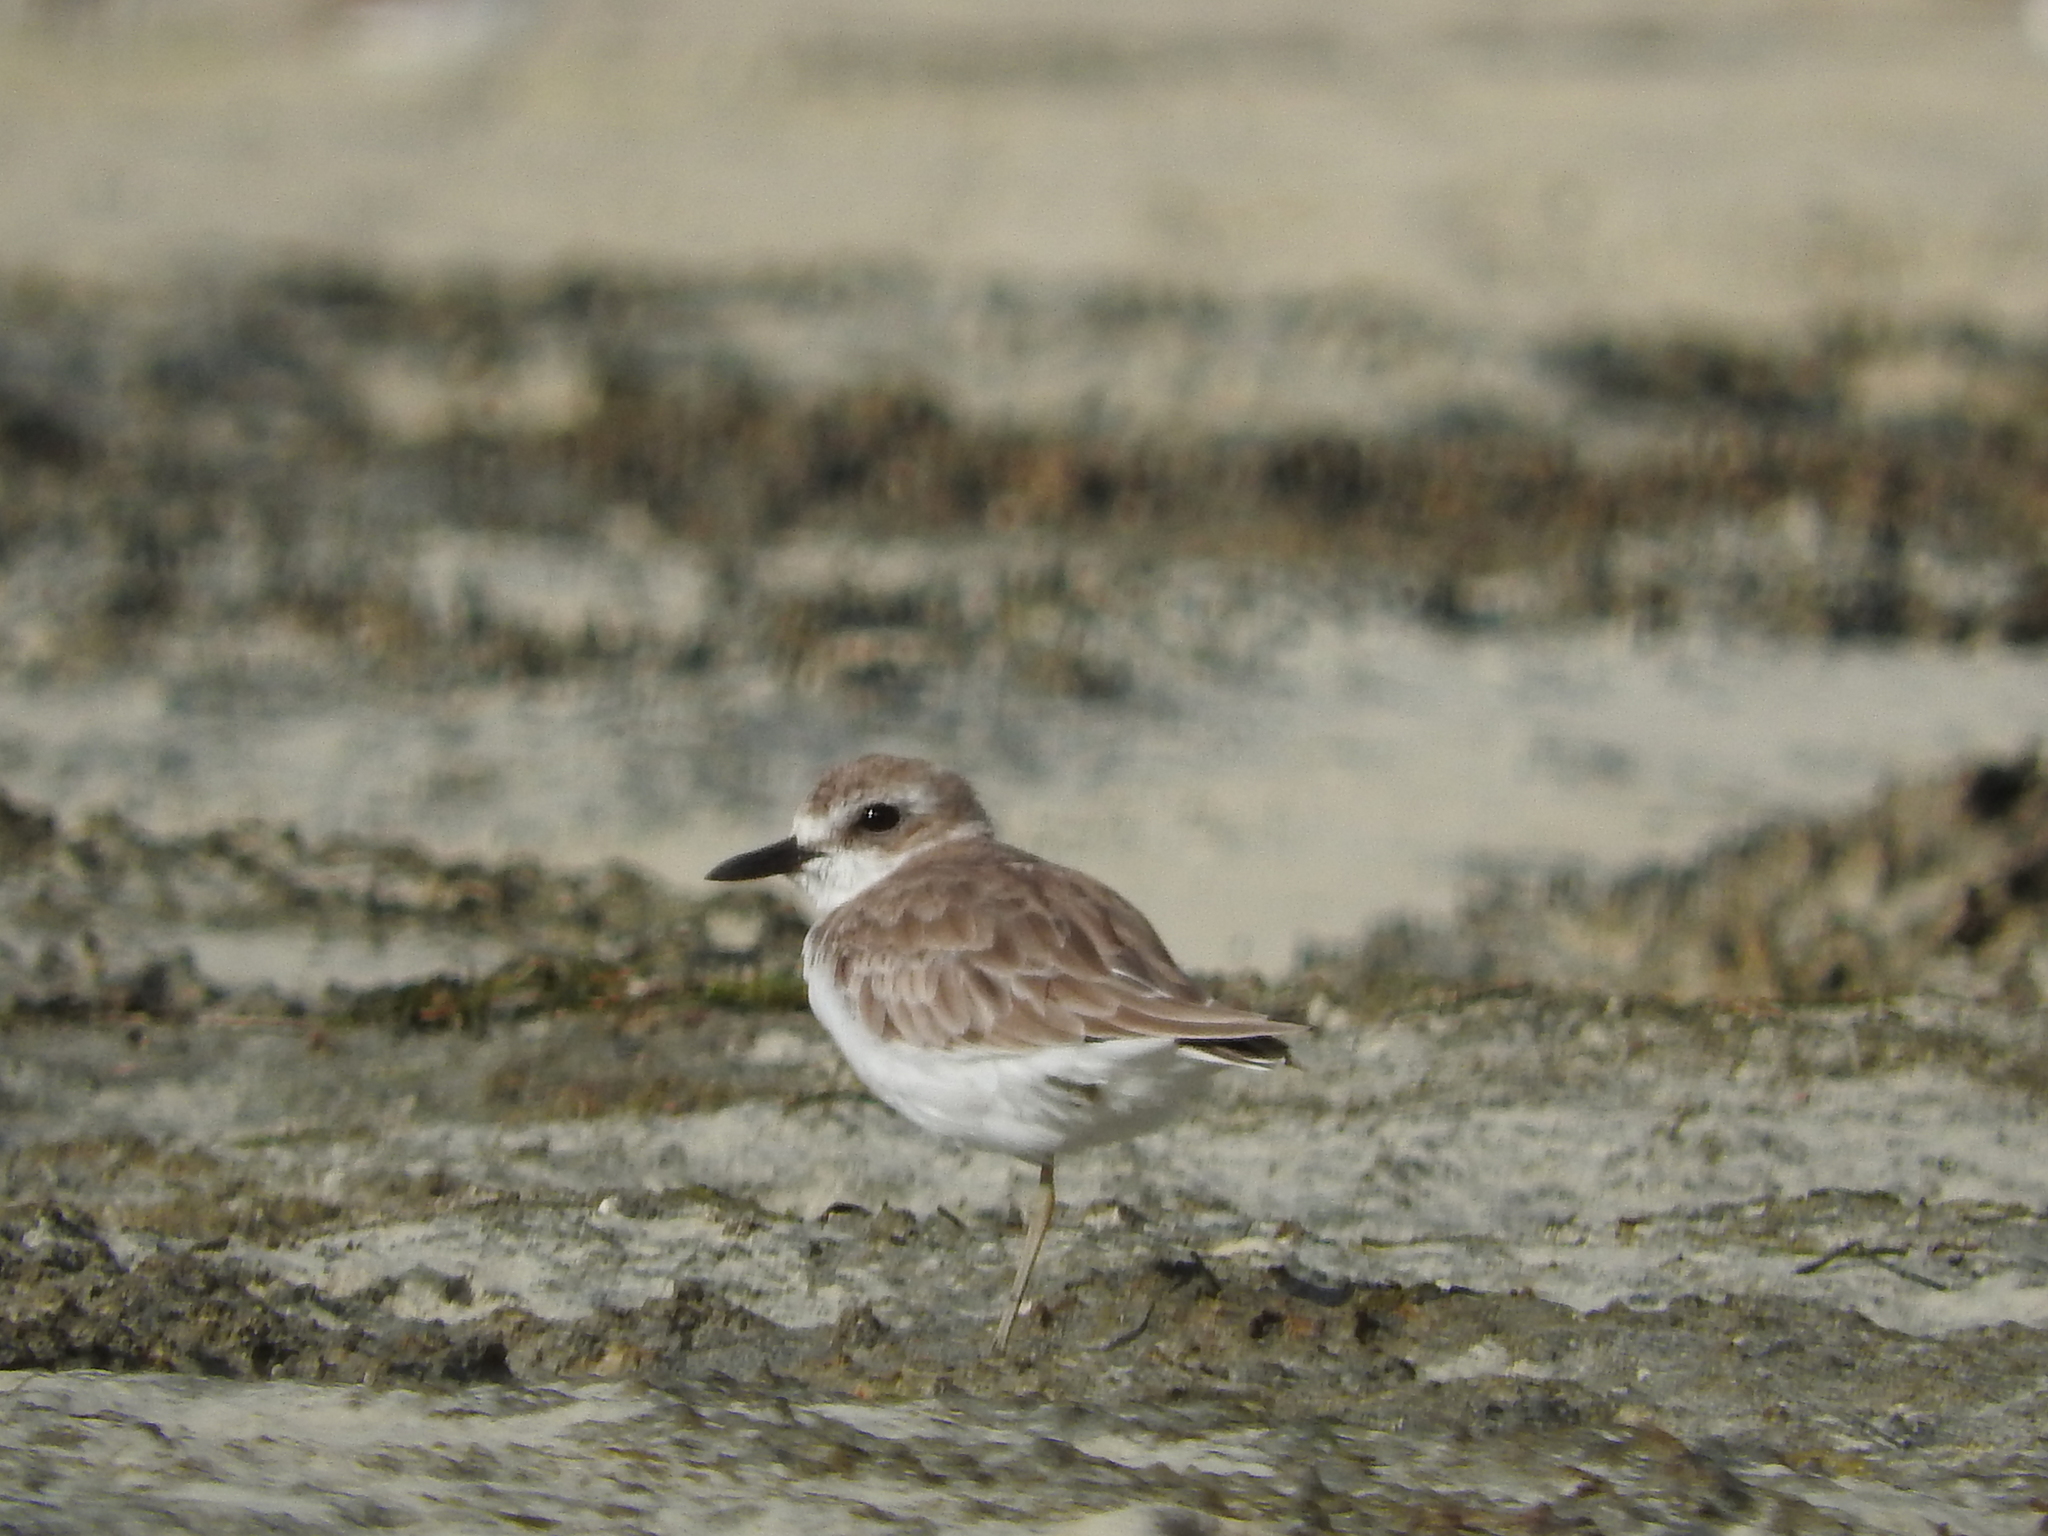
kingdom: Animalia
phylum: Chordata
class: Aves
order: Charadriiformes
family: Charadriidae
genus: Charadrius
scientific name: Charadrius leschenaultii
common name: Greater sand plover
